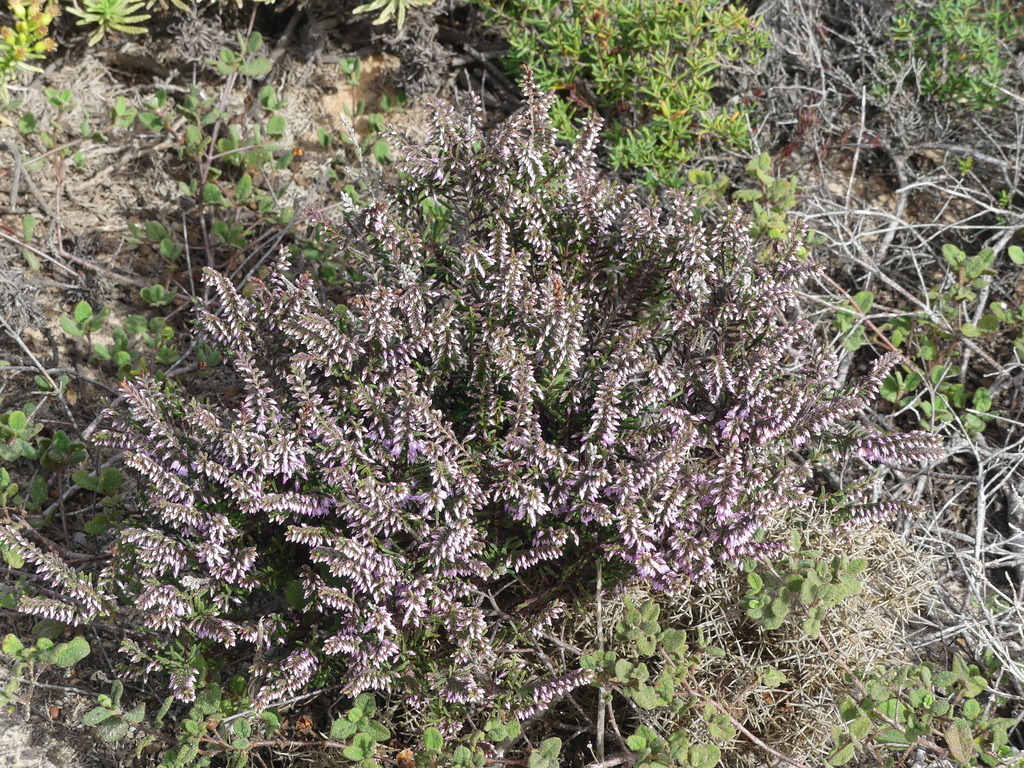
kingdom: Plantae
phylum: Tracheophyta
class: Magnoliopsida
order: Ericales
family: Ericaceae
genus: Calluna
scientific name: Calluna vulgaris
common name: Heather
